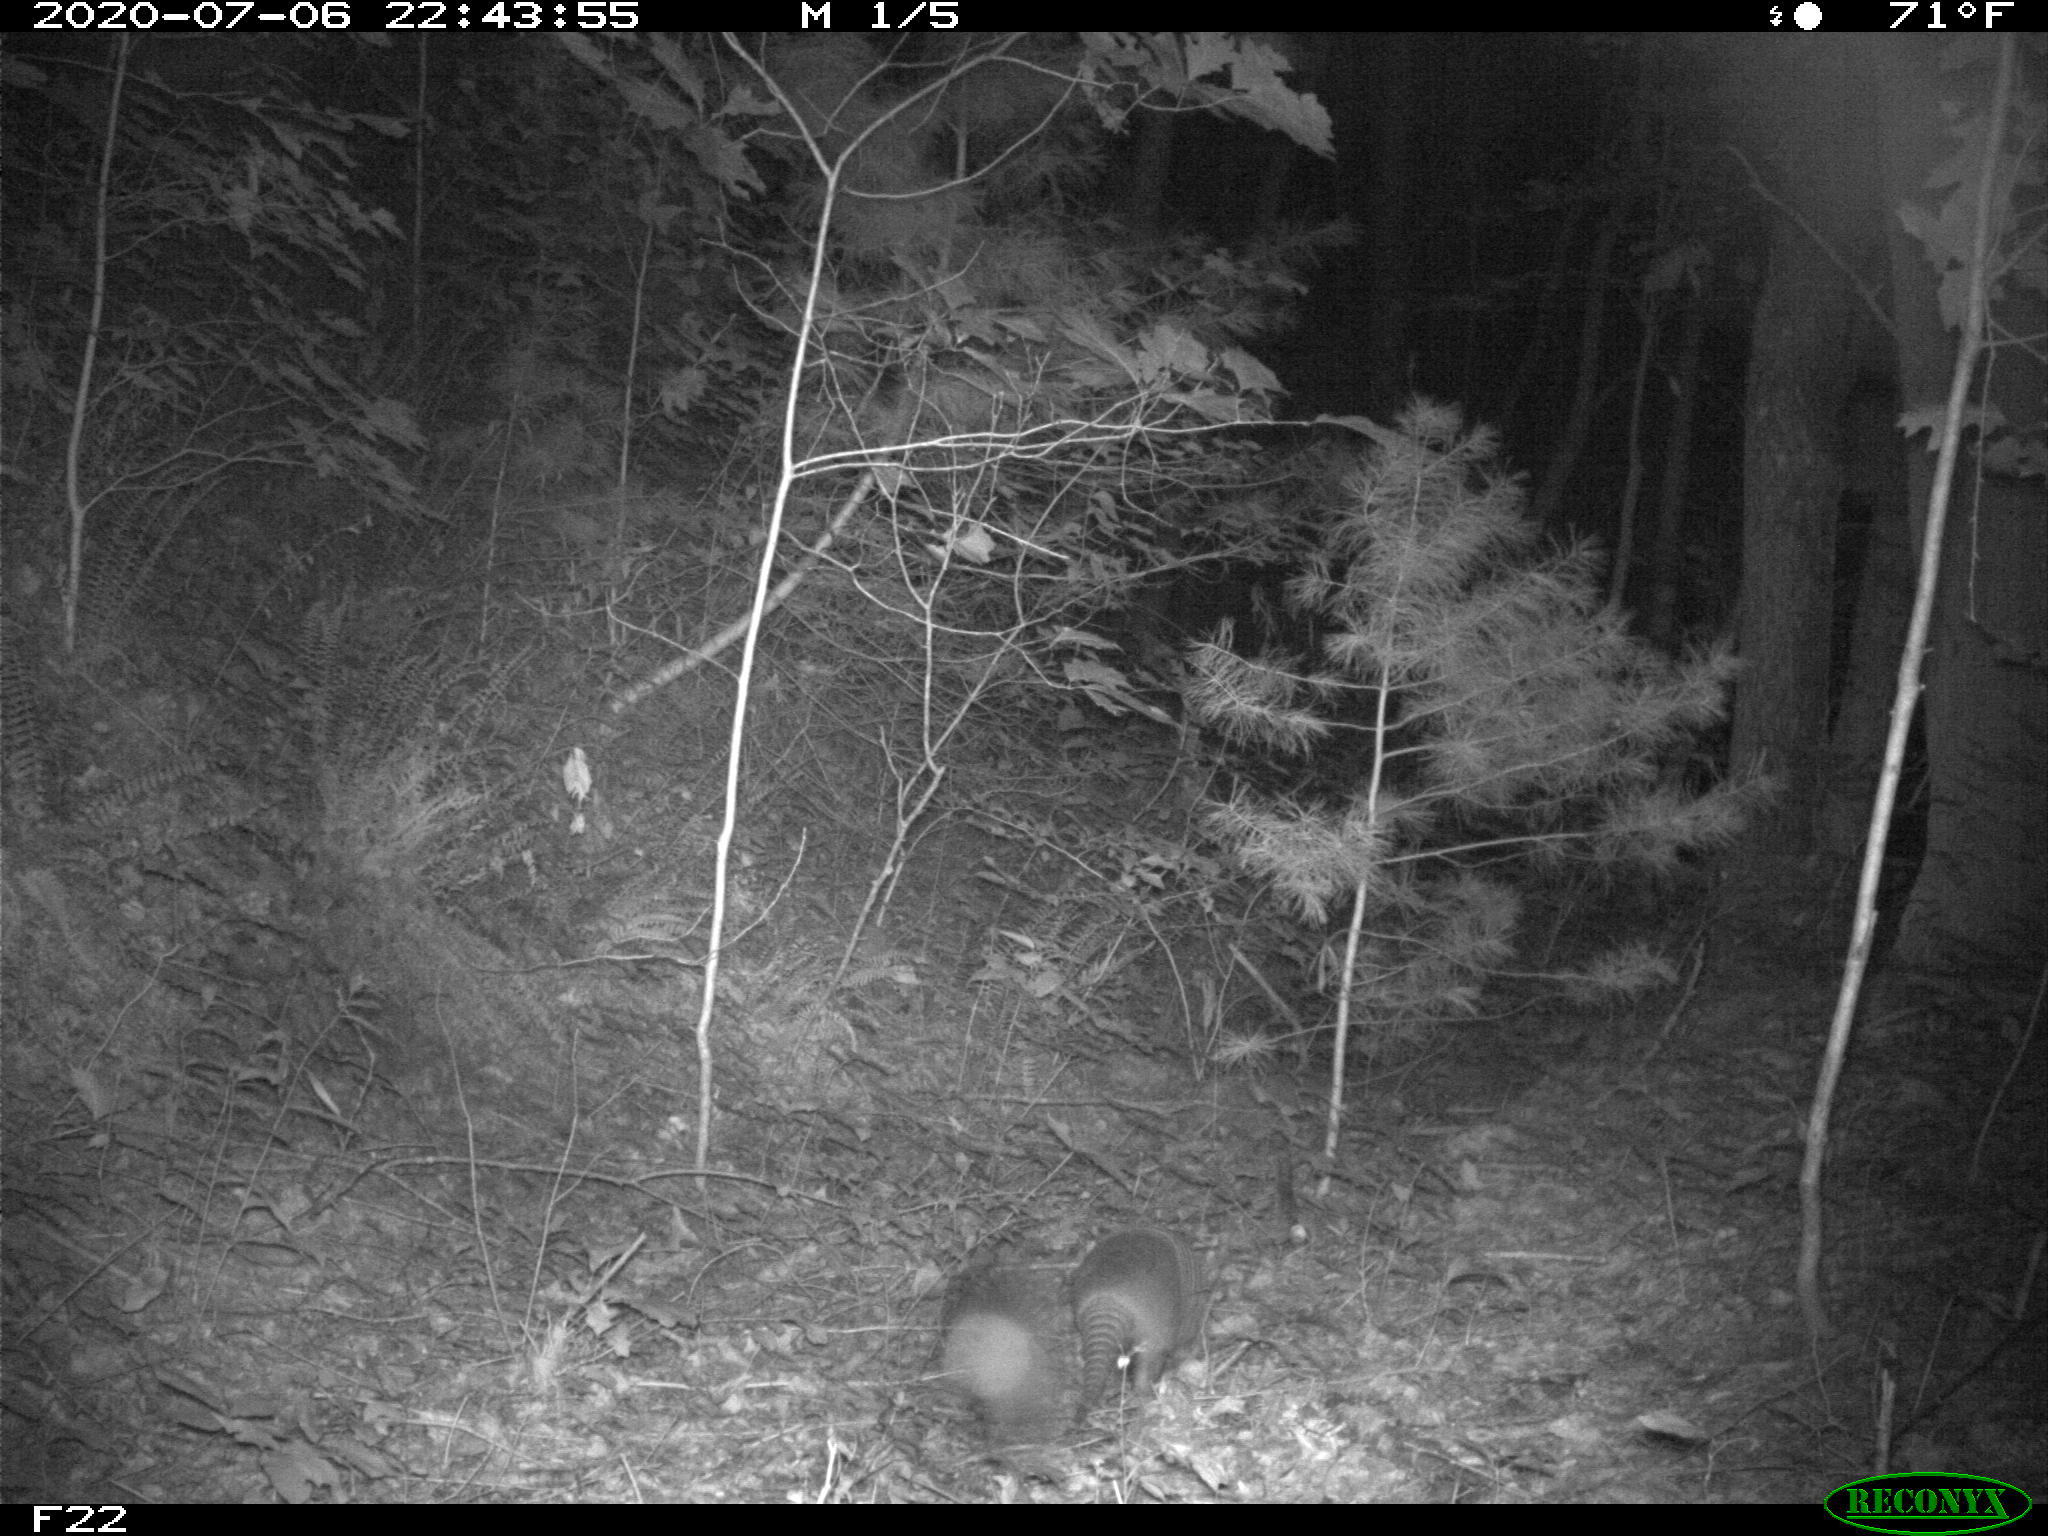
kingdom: Animalia
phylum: Chordata
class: Mammalia
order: Cingulata
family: Dasypodidae
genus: Dasypus
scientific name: Dasypus novemcinctus
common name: Nine-banded armadillo
